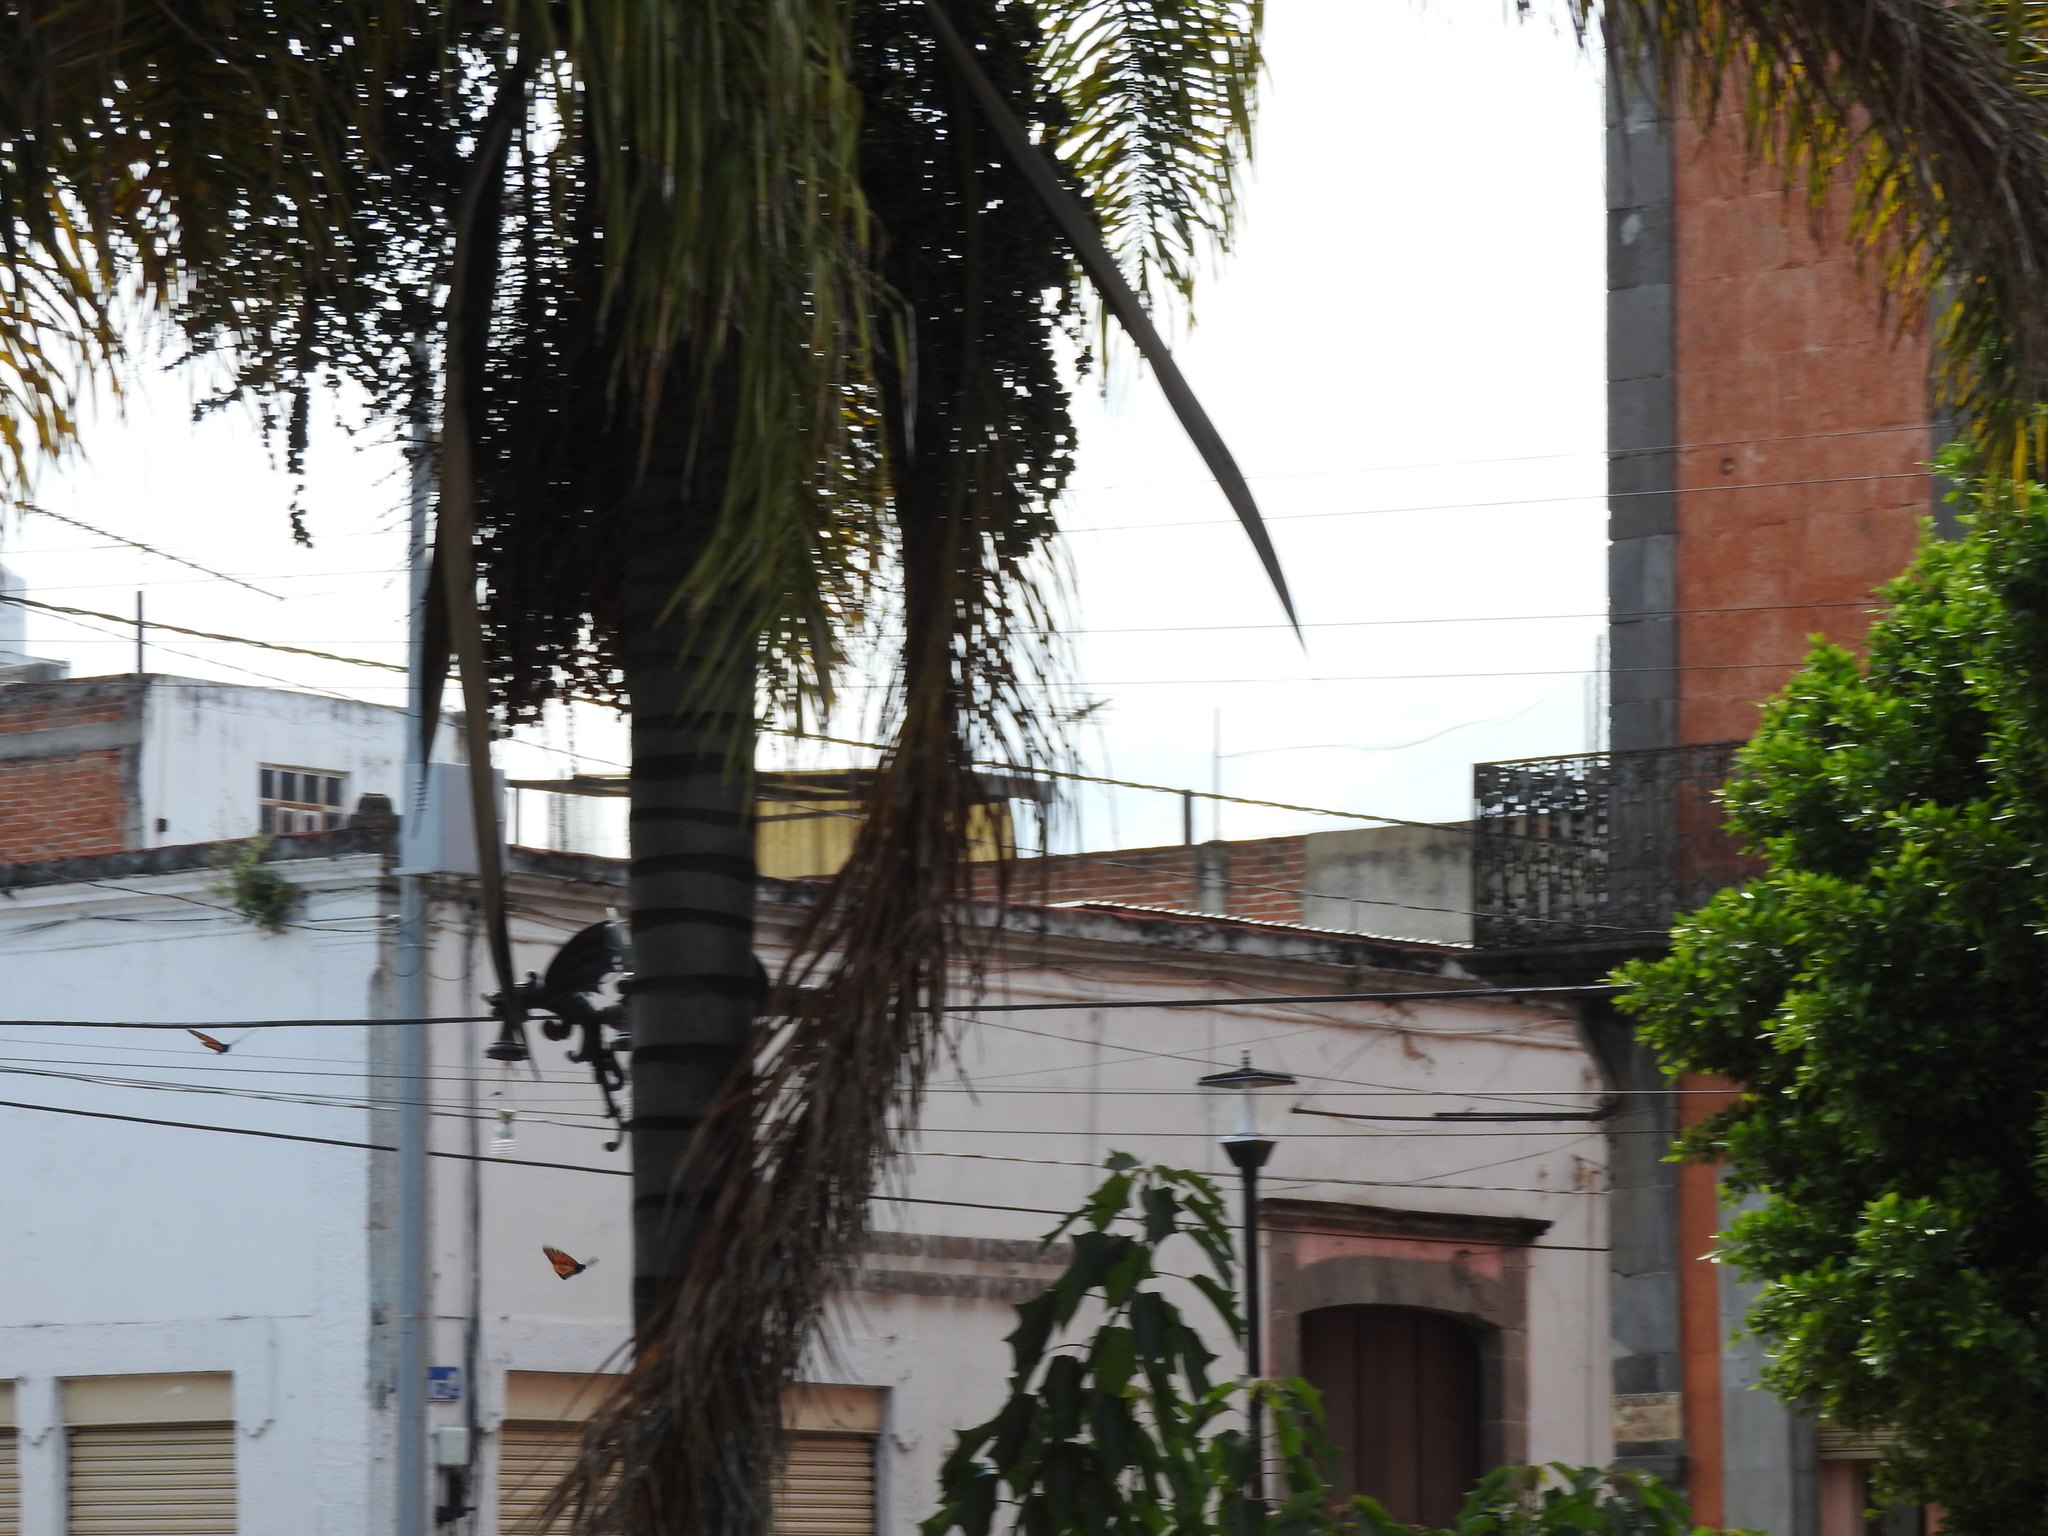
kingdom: Animalia
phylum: Arthropoda
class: Insecta
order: Lepidoptera
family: Nymphalidae
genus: Danaus
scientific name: Danaus plexippus
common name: Monarch
